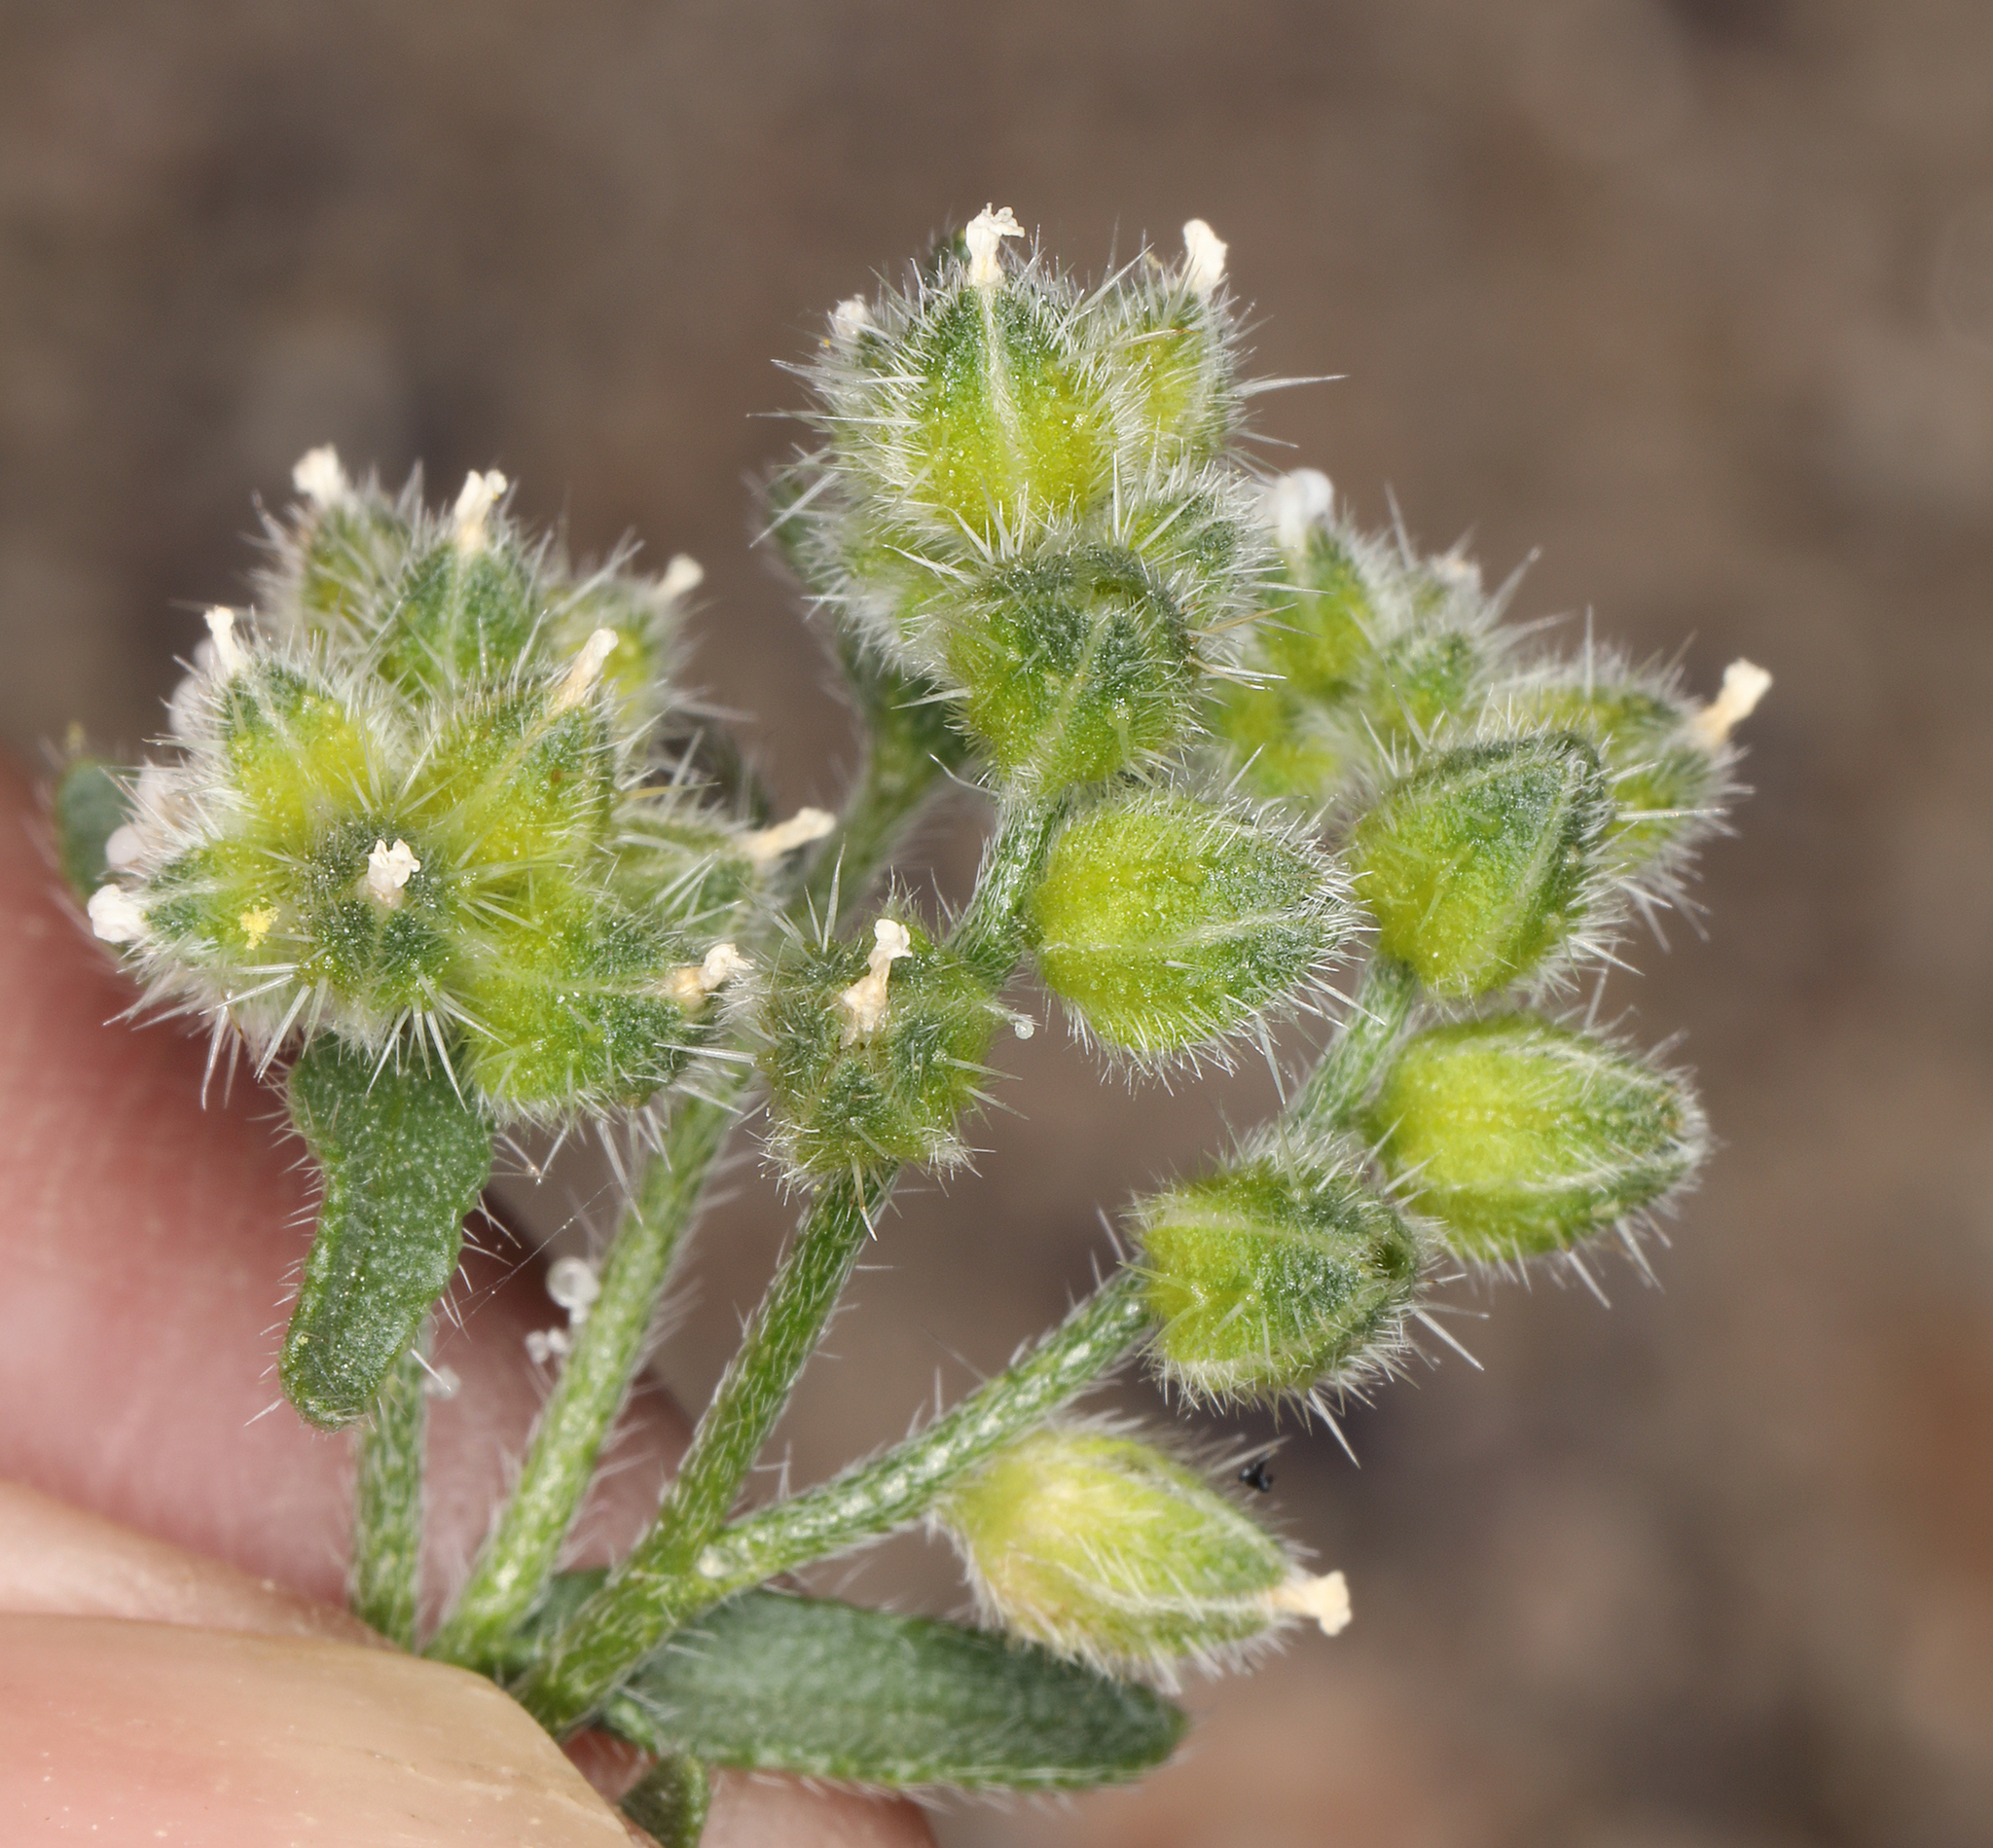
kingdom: Plantae
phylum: Tracheophyta
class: Magnoliopsida
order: Boraginales
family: Boraginaceae
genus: Cryptantha
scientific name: Cryptantha pterocarya
